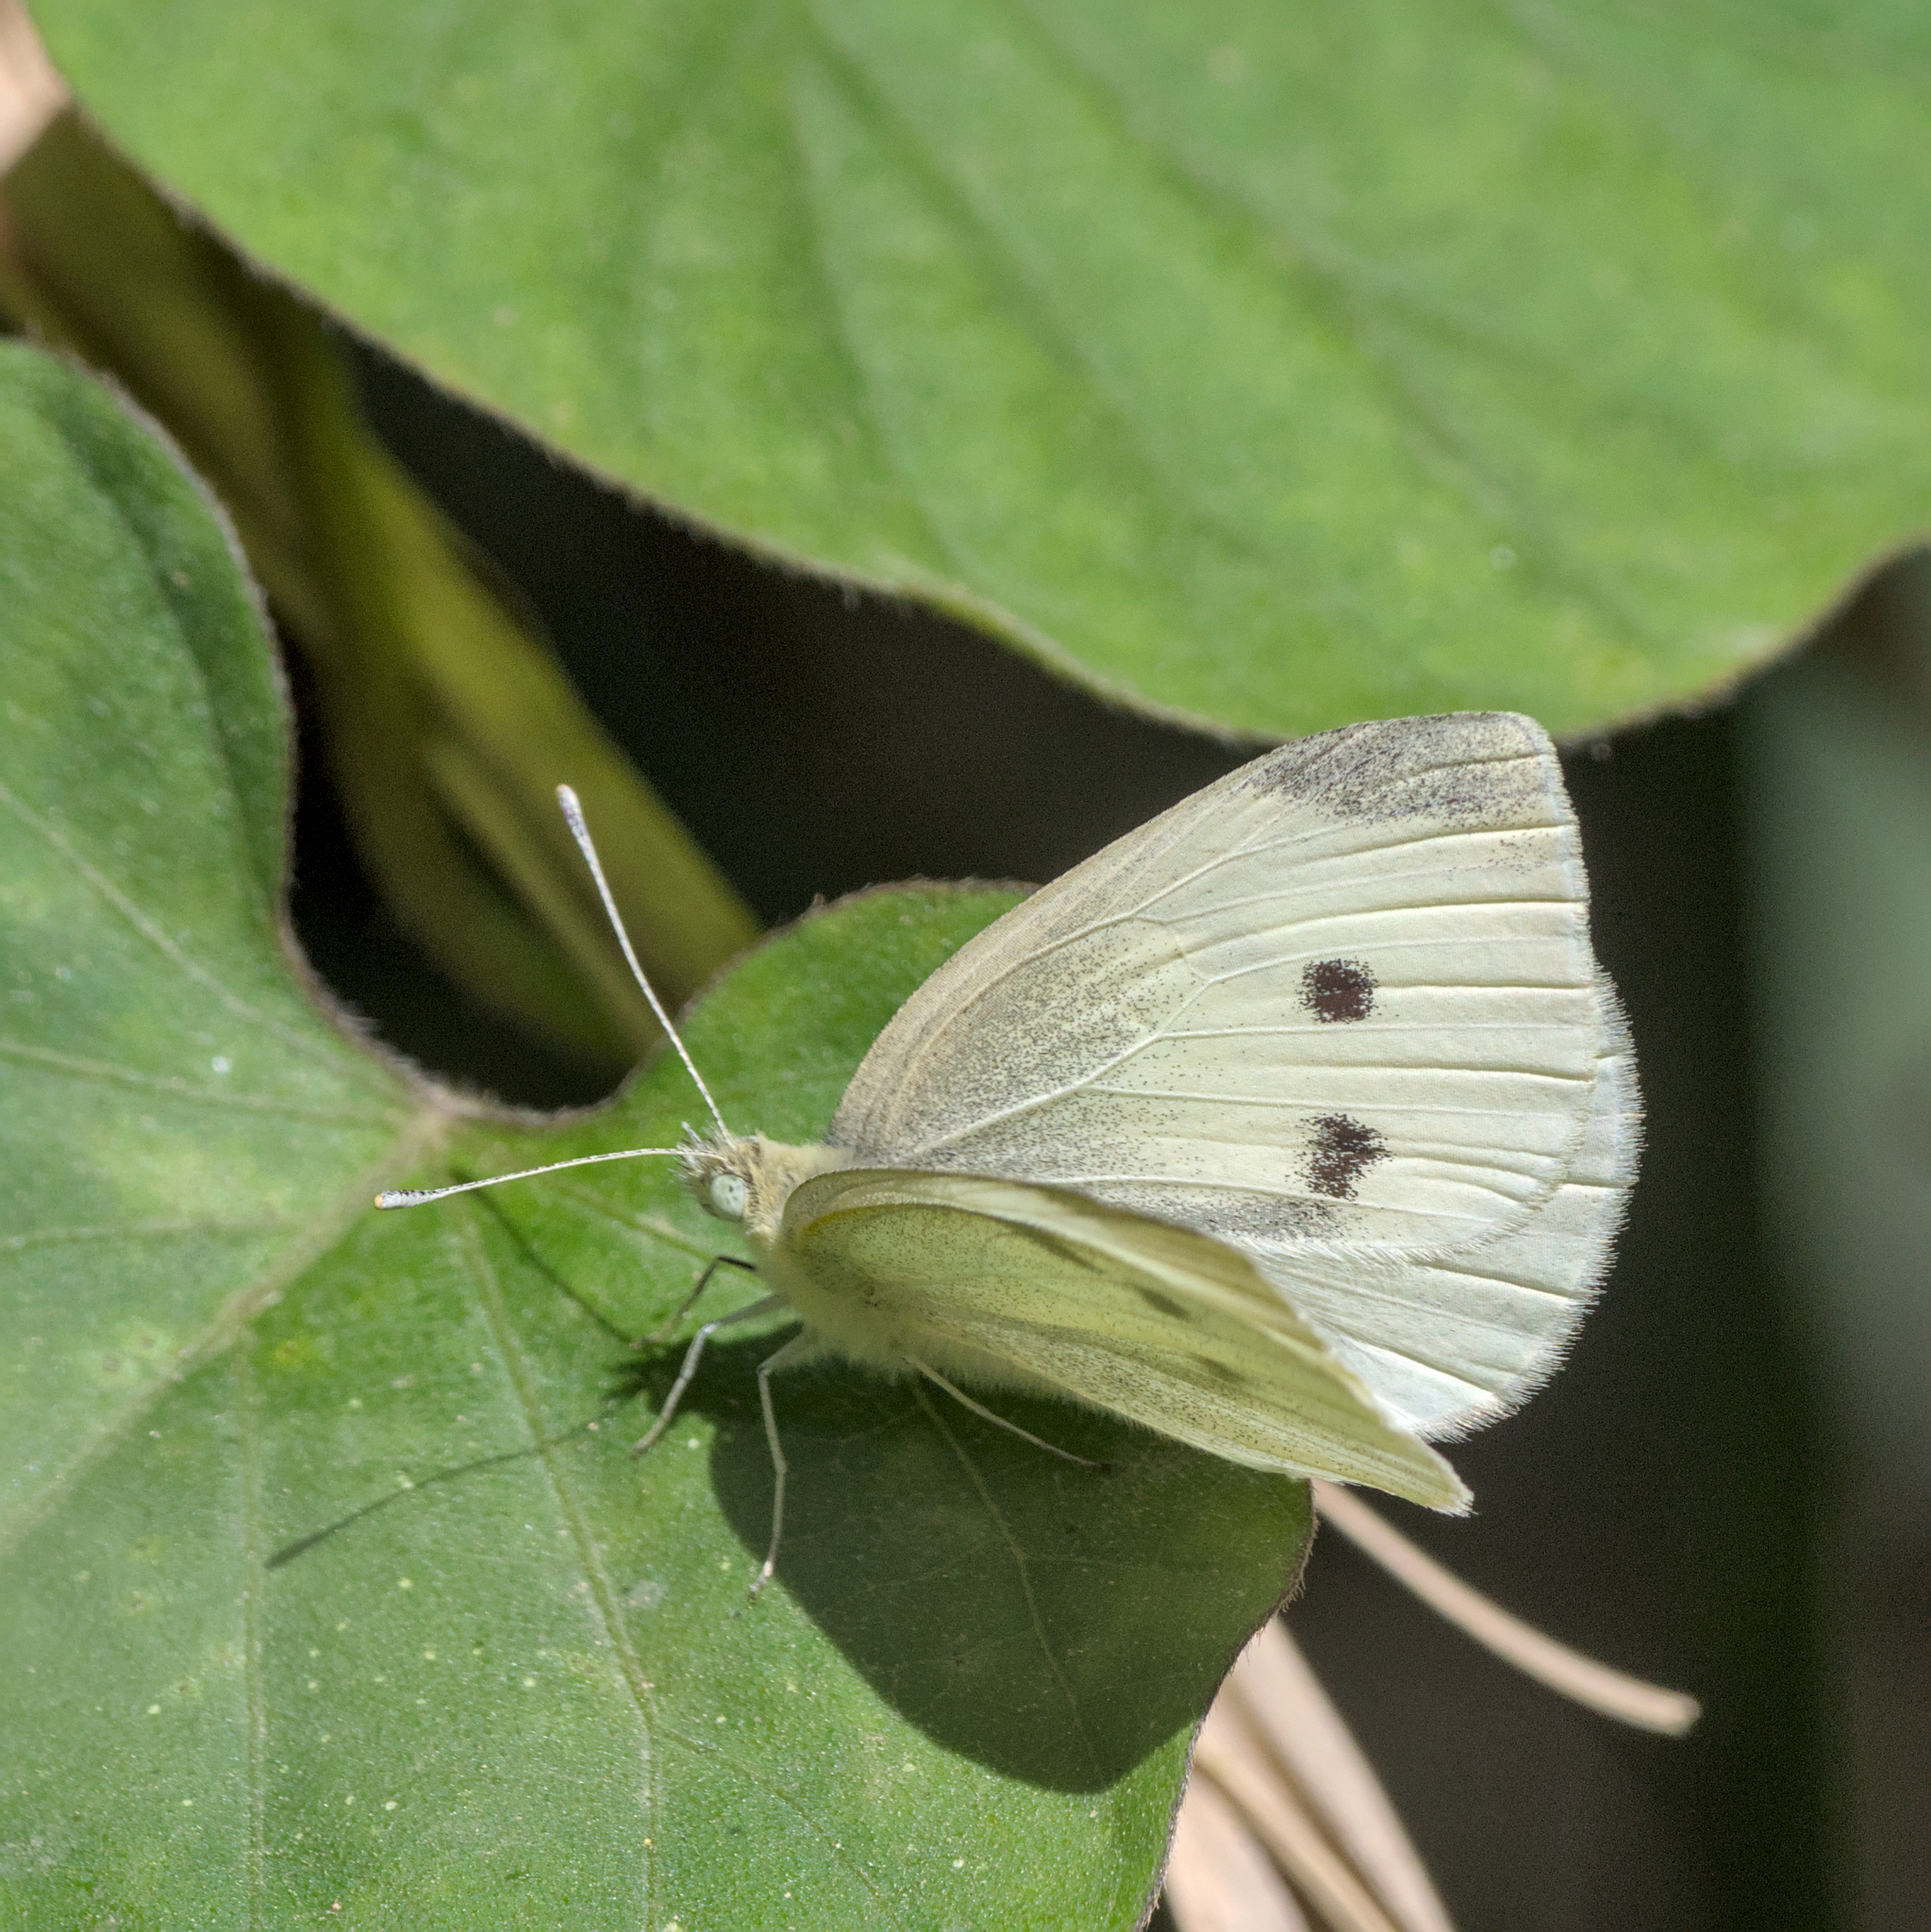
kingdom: Animalia
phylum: Arthropoda
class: Insecta
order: Lepidoptera
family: Pieridae
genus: Pieris
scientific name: Pieris rapae
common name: Small white
